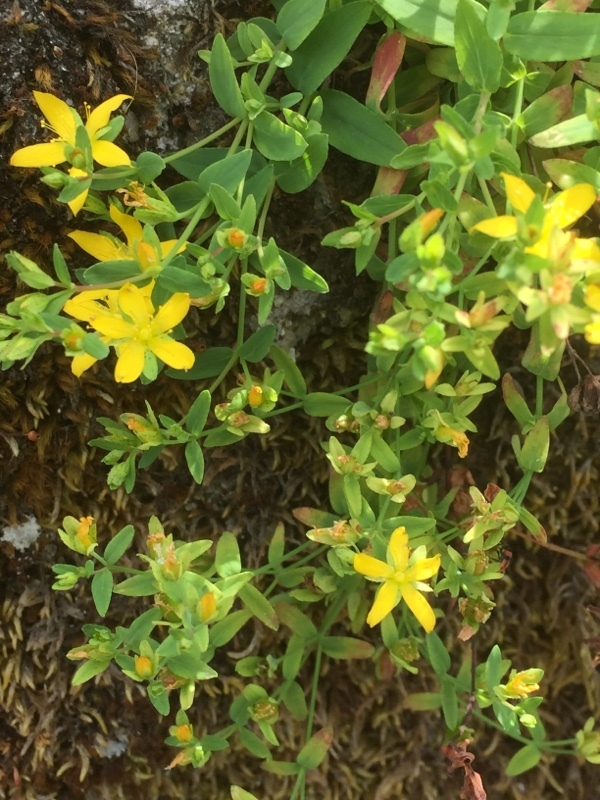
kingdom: Plantae
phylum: Tracheophyta
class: Magnoliopsida
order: Malpighiales
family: Hypericaceae
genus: Hypericum
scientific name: Hypericum humifusum
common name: Trailing st. john's-wort
